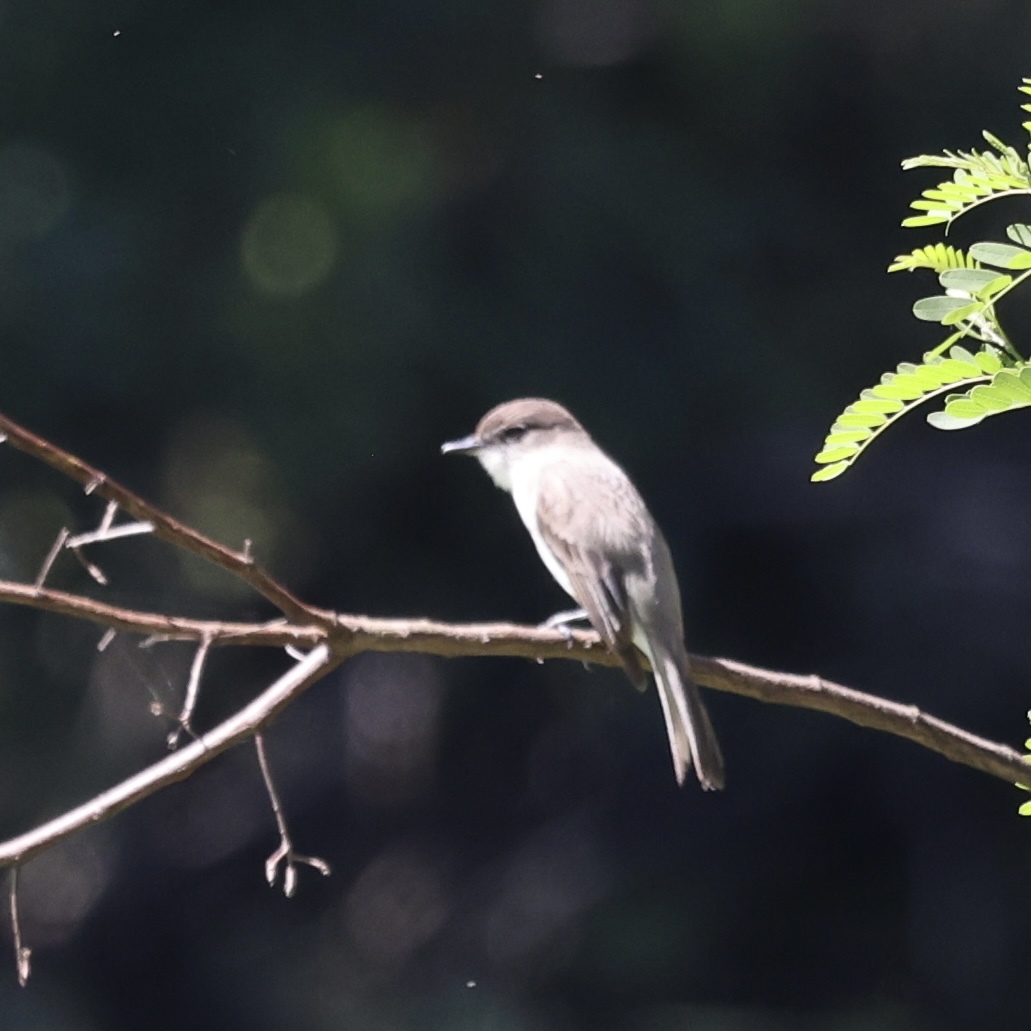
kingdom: Animalia
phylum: Chordata
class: Aves
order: Passeriformes
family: Tyrannidae
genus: Sayornis
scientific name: Sayornis phoebe
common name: Eastern phoebe
